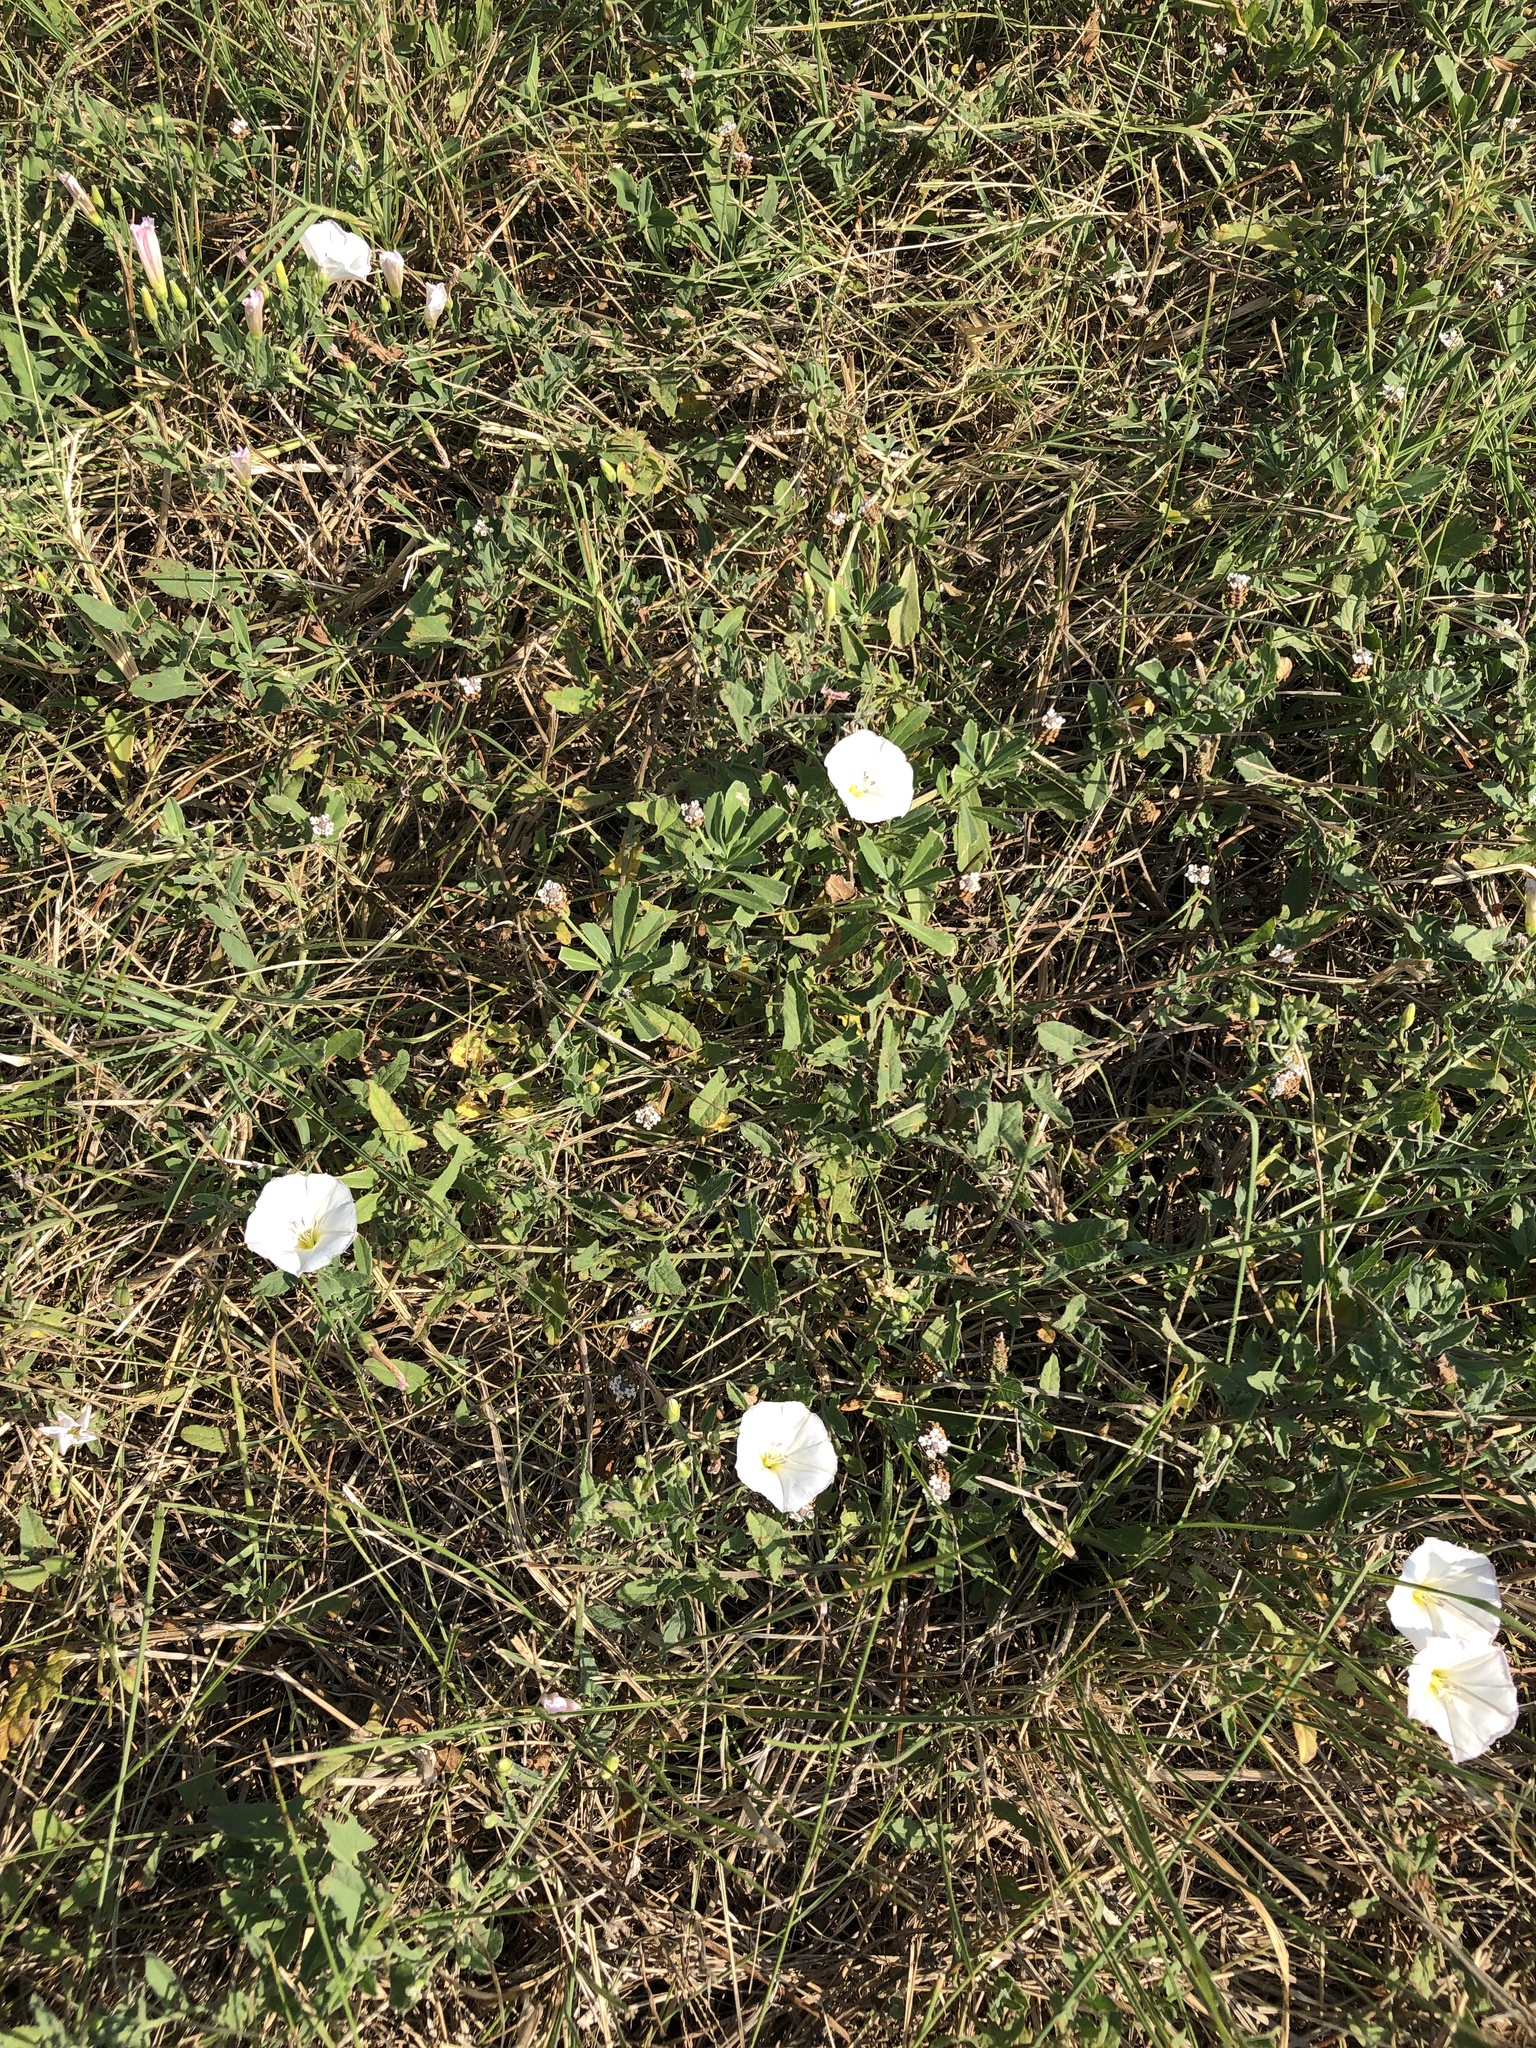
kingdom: Plantae
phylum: Tracheophyta
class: Magnoliopsida
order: Solanales
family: Convolvulaceae
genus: Convolvulus
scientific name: Convolvulus arvensis
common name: Field bindweed
